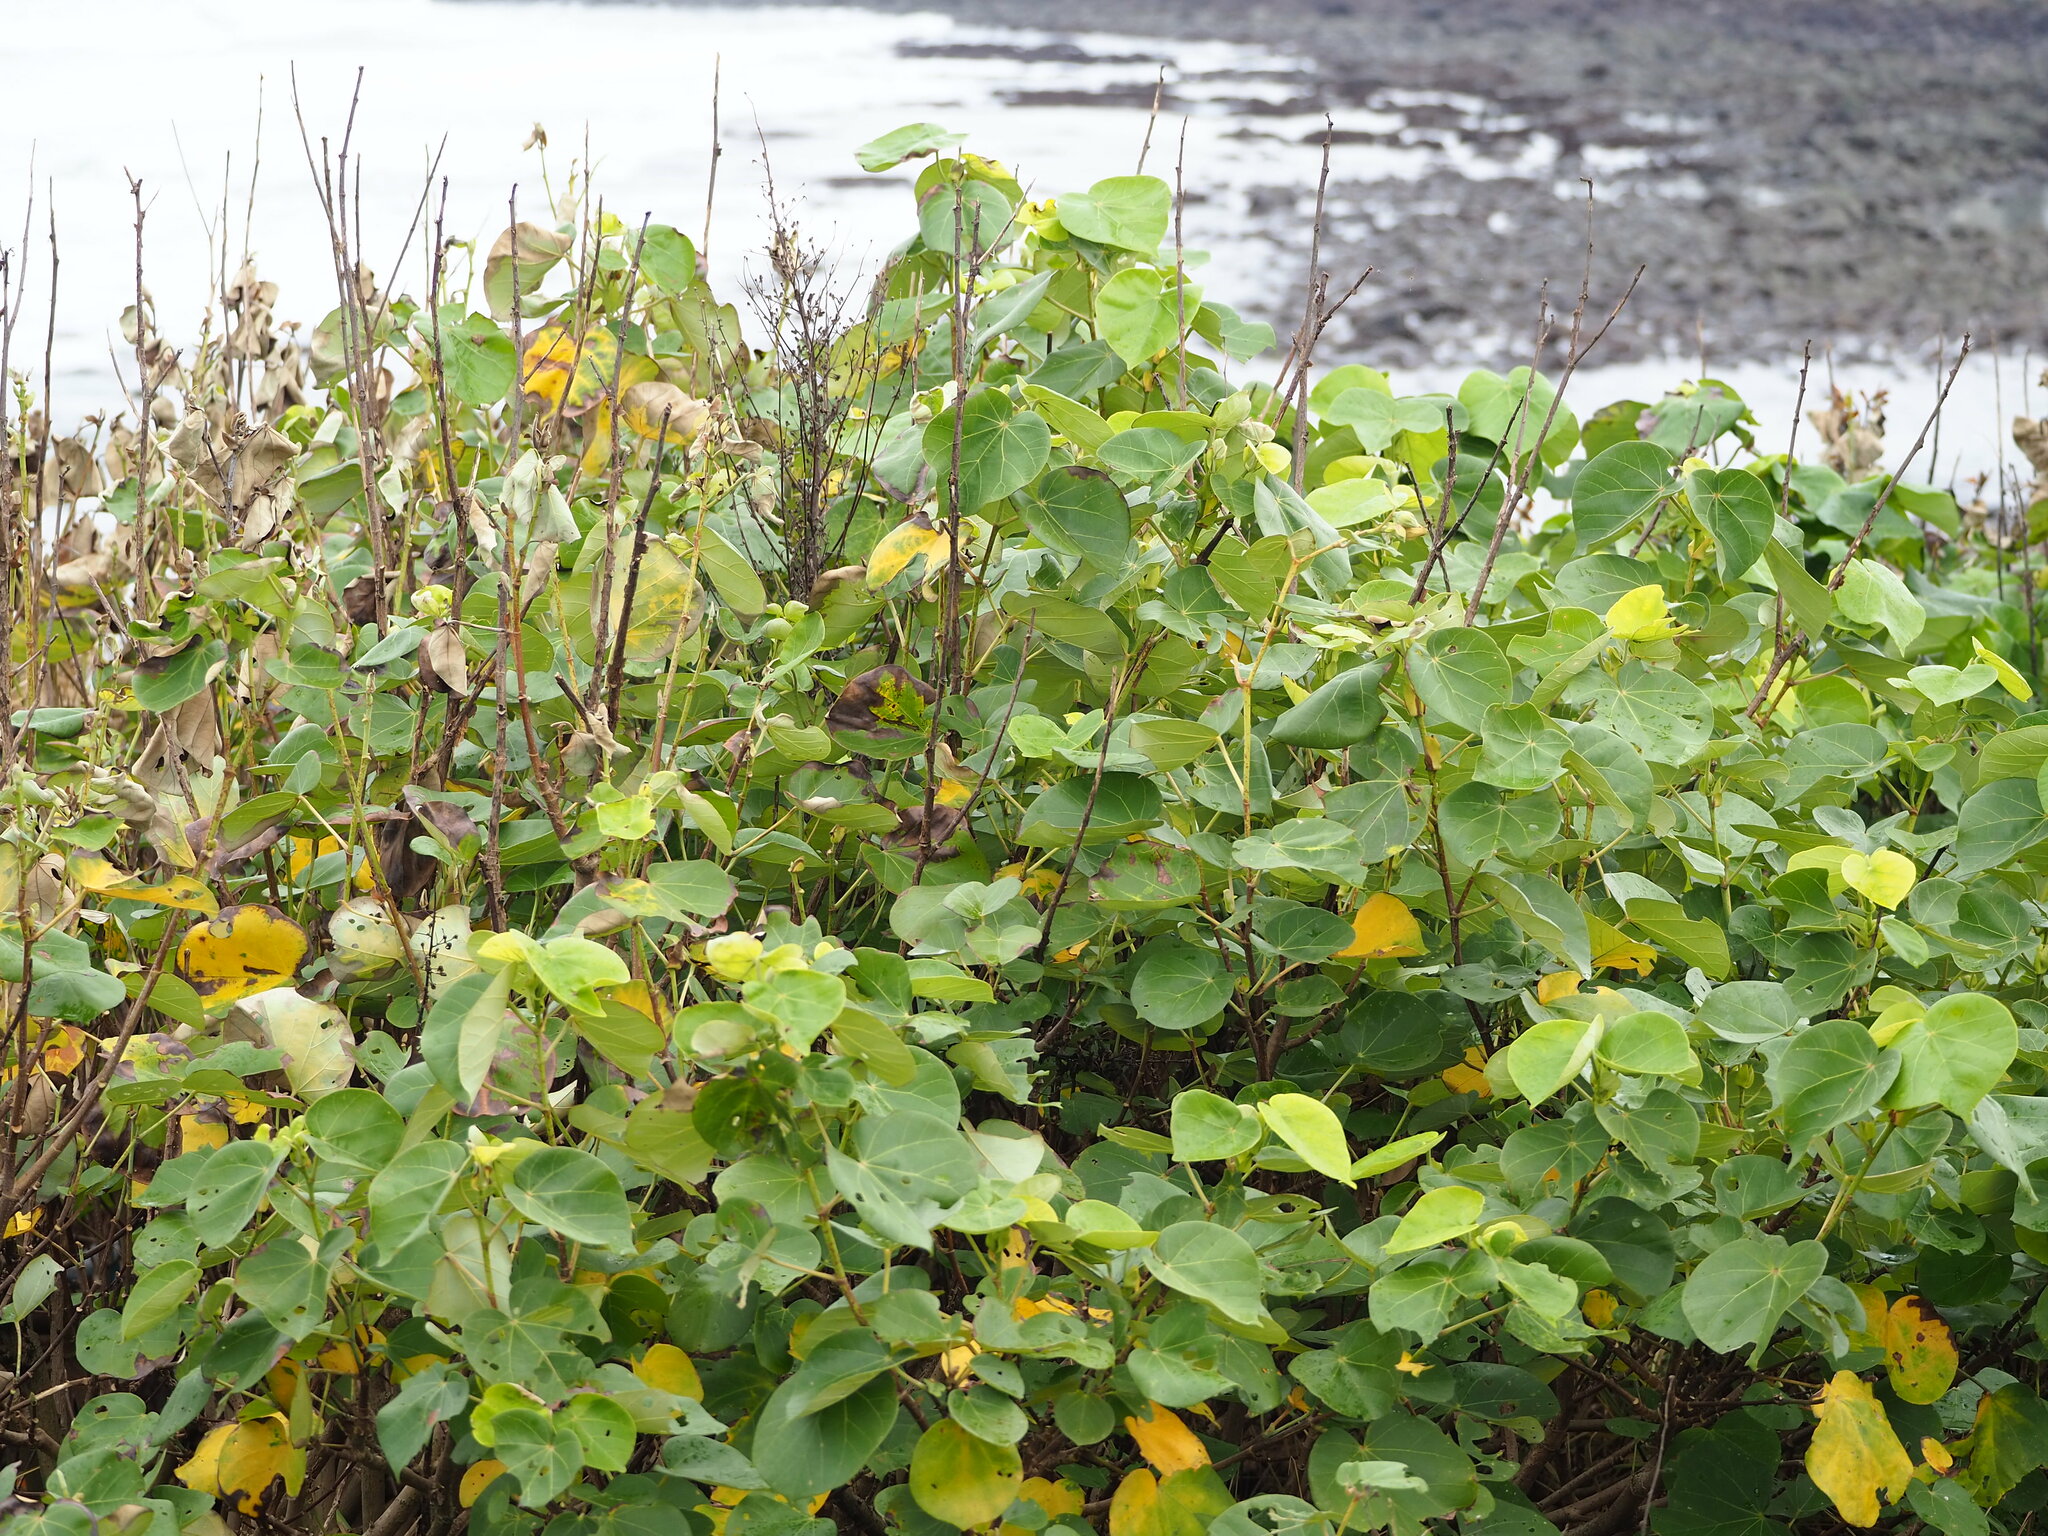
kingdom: Plantae
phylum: Tracheophyta
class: Magnoliopsida
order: Malvales
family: Malvaceae
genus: Talipariti
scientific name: Talipariti tiliaceum
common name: Sea hibiscus
